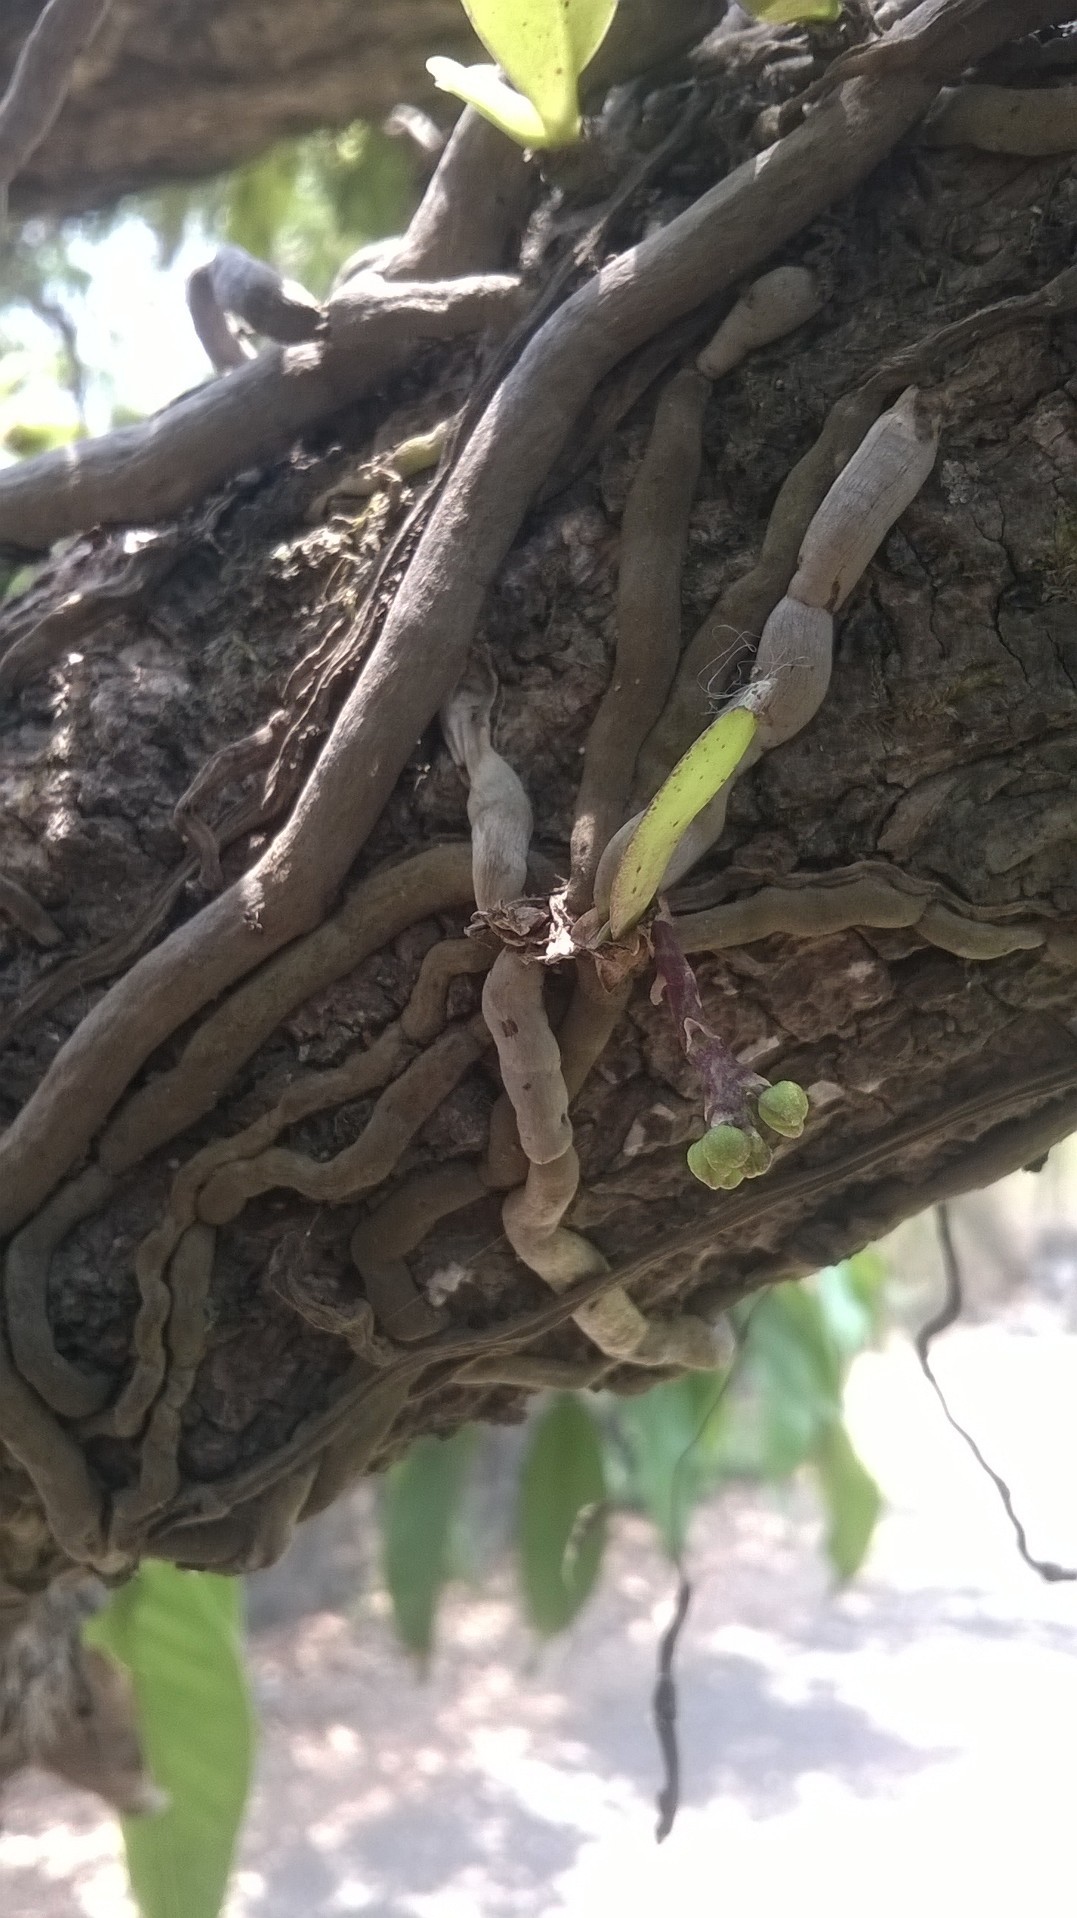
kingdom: Plantae
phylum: Tracheophyta
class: Liliopsida
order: Asparagales
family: Orchidaceae
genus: Smithsonia
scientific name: Smithsonia viridiflora
